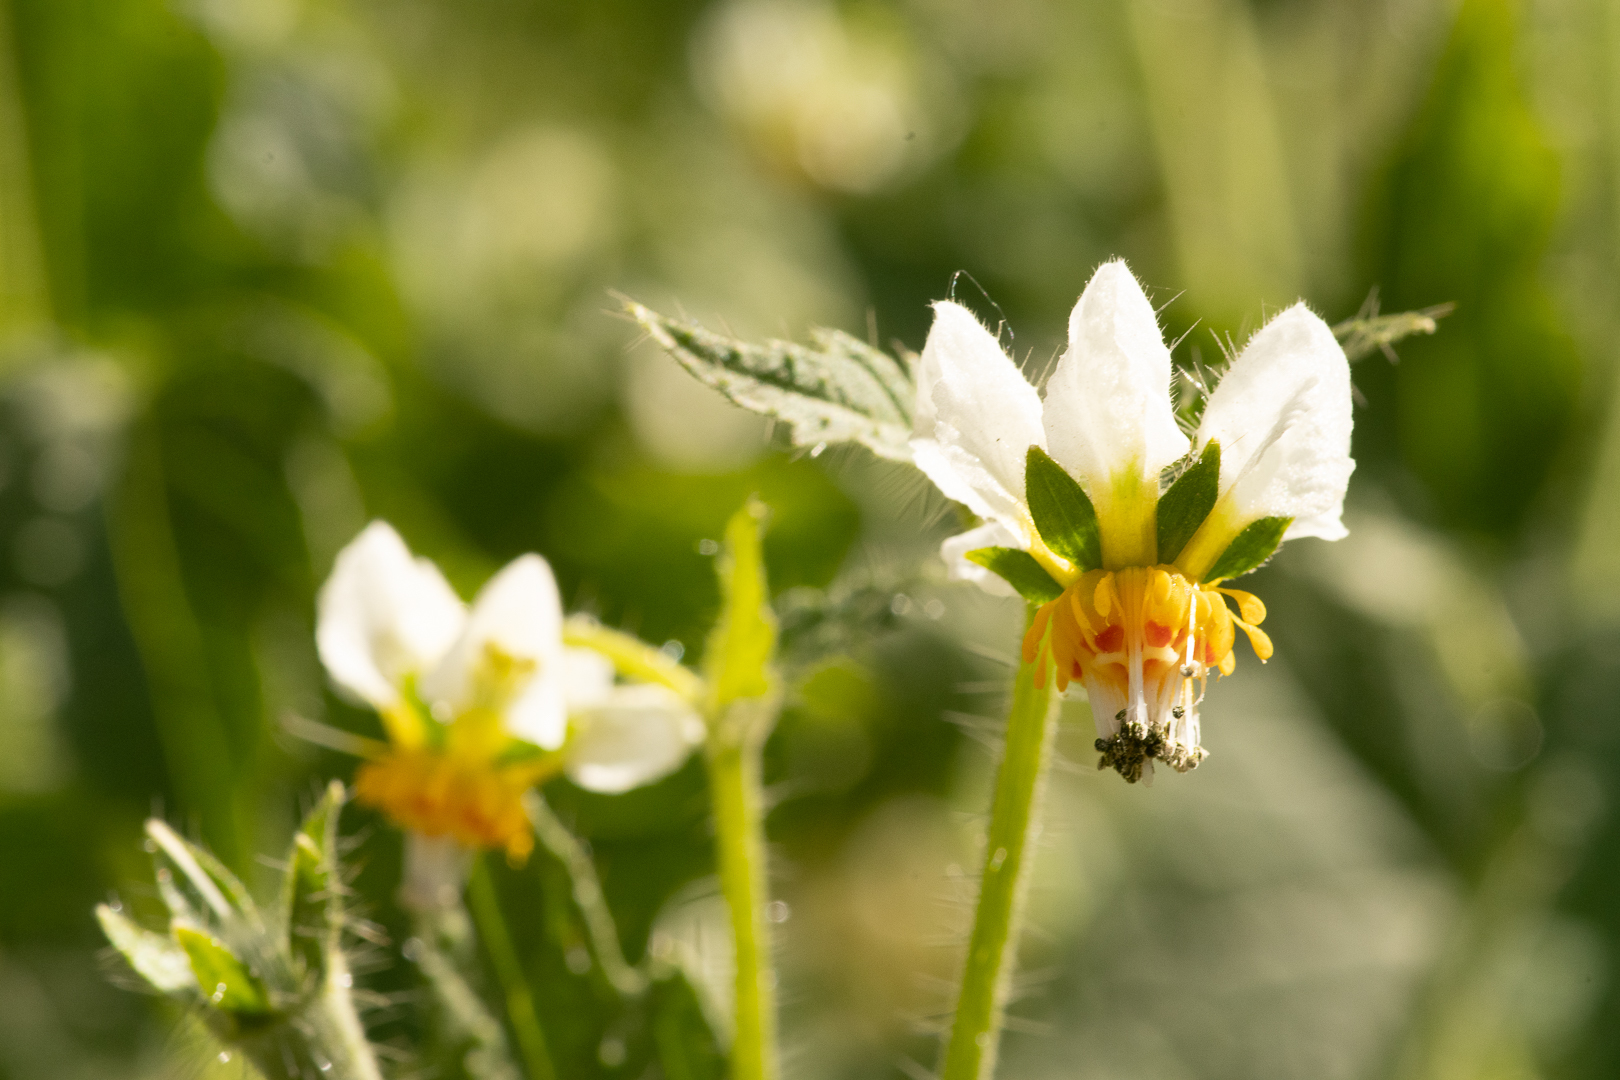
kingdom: Plantae
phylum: Tracheophyta
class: Magnoliopsida
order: Cornales
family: Loasaceae
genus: Loasa
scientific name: Loasa triloba
